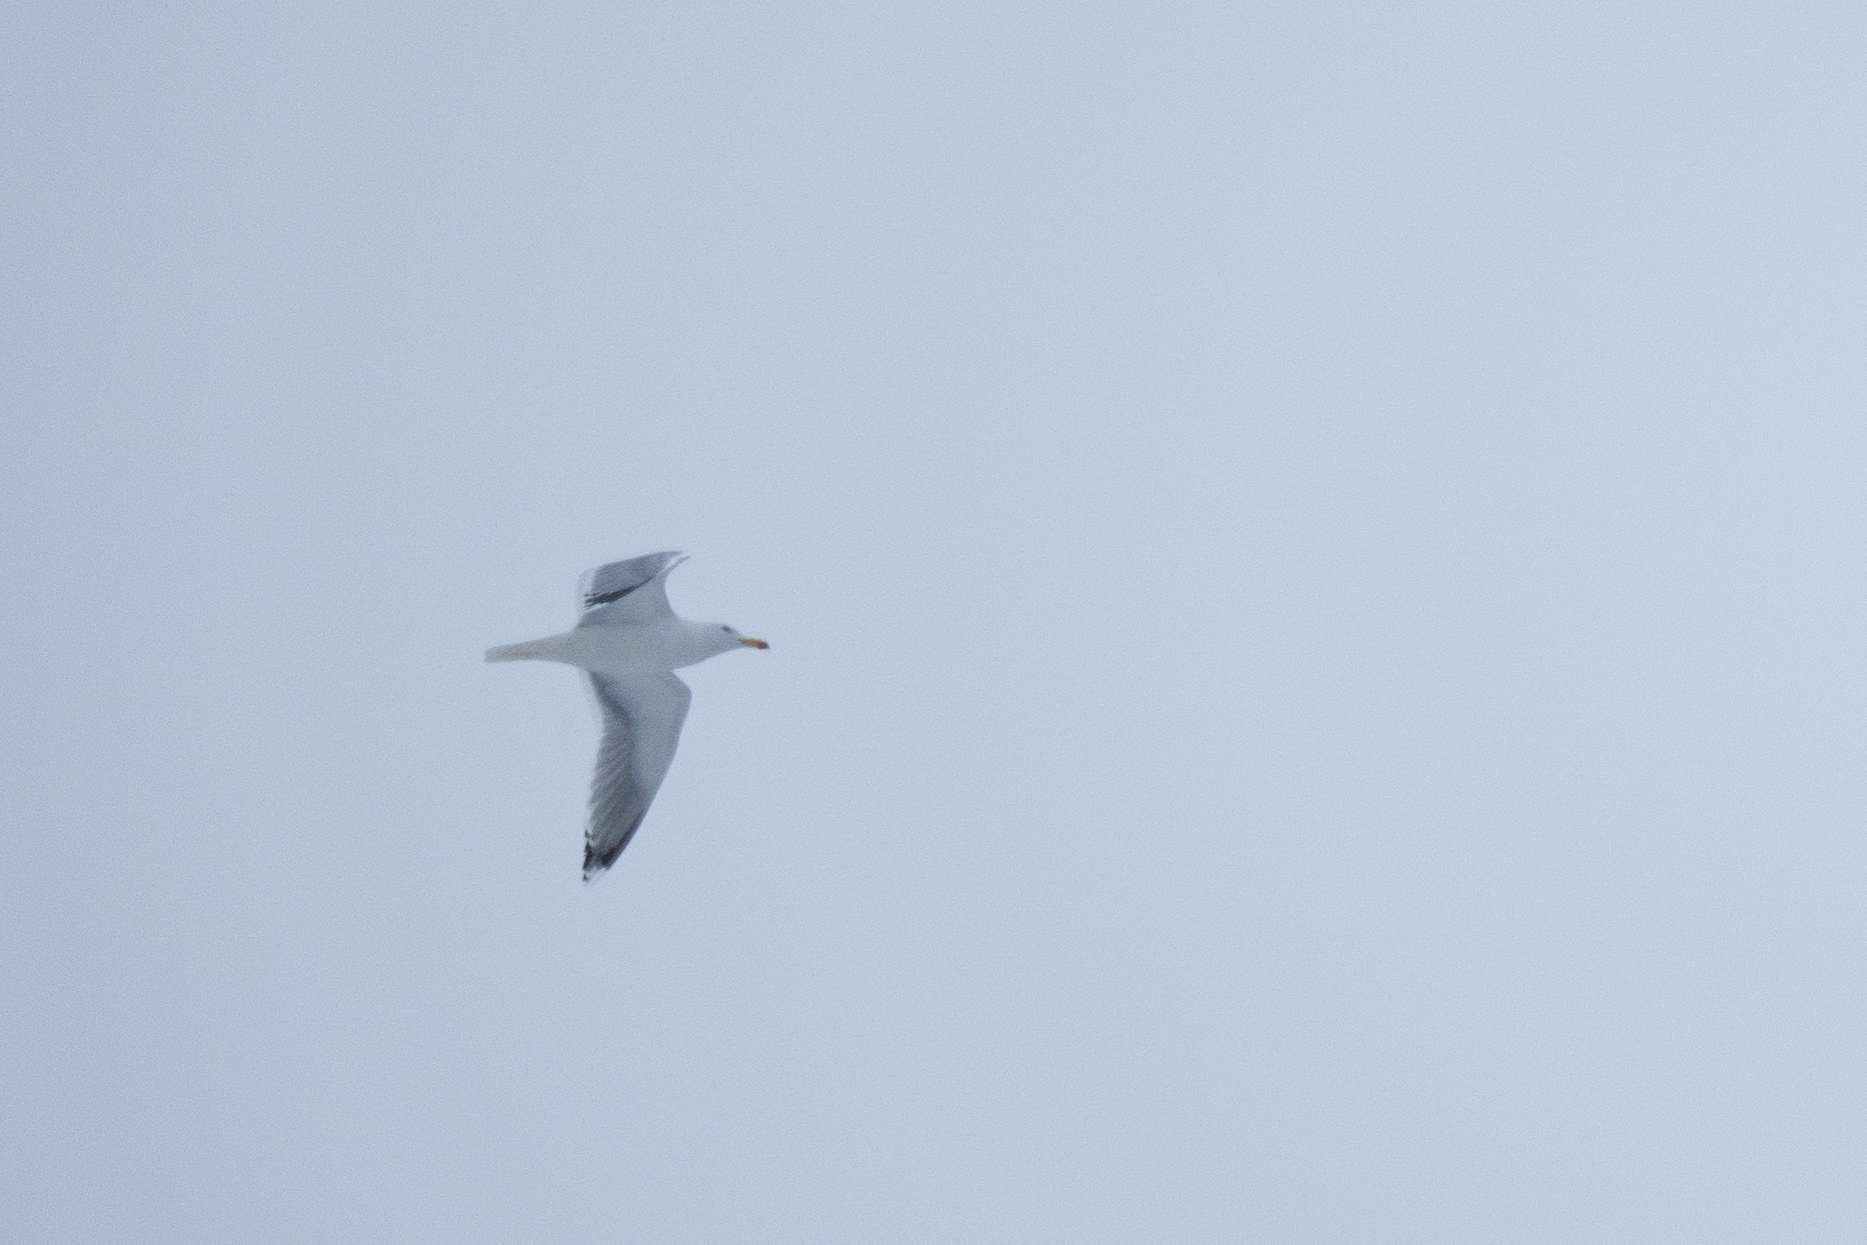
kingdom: Animalia
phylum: Chordata
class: Aves
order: Charadriiformes
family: Laridae
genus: Larus
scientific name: Larus argentatus
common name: Herring gull
